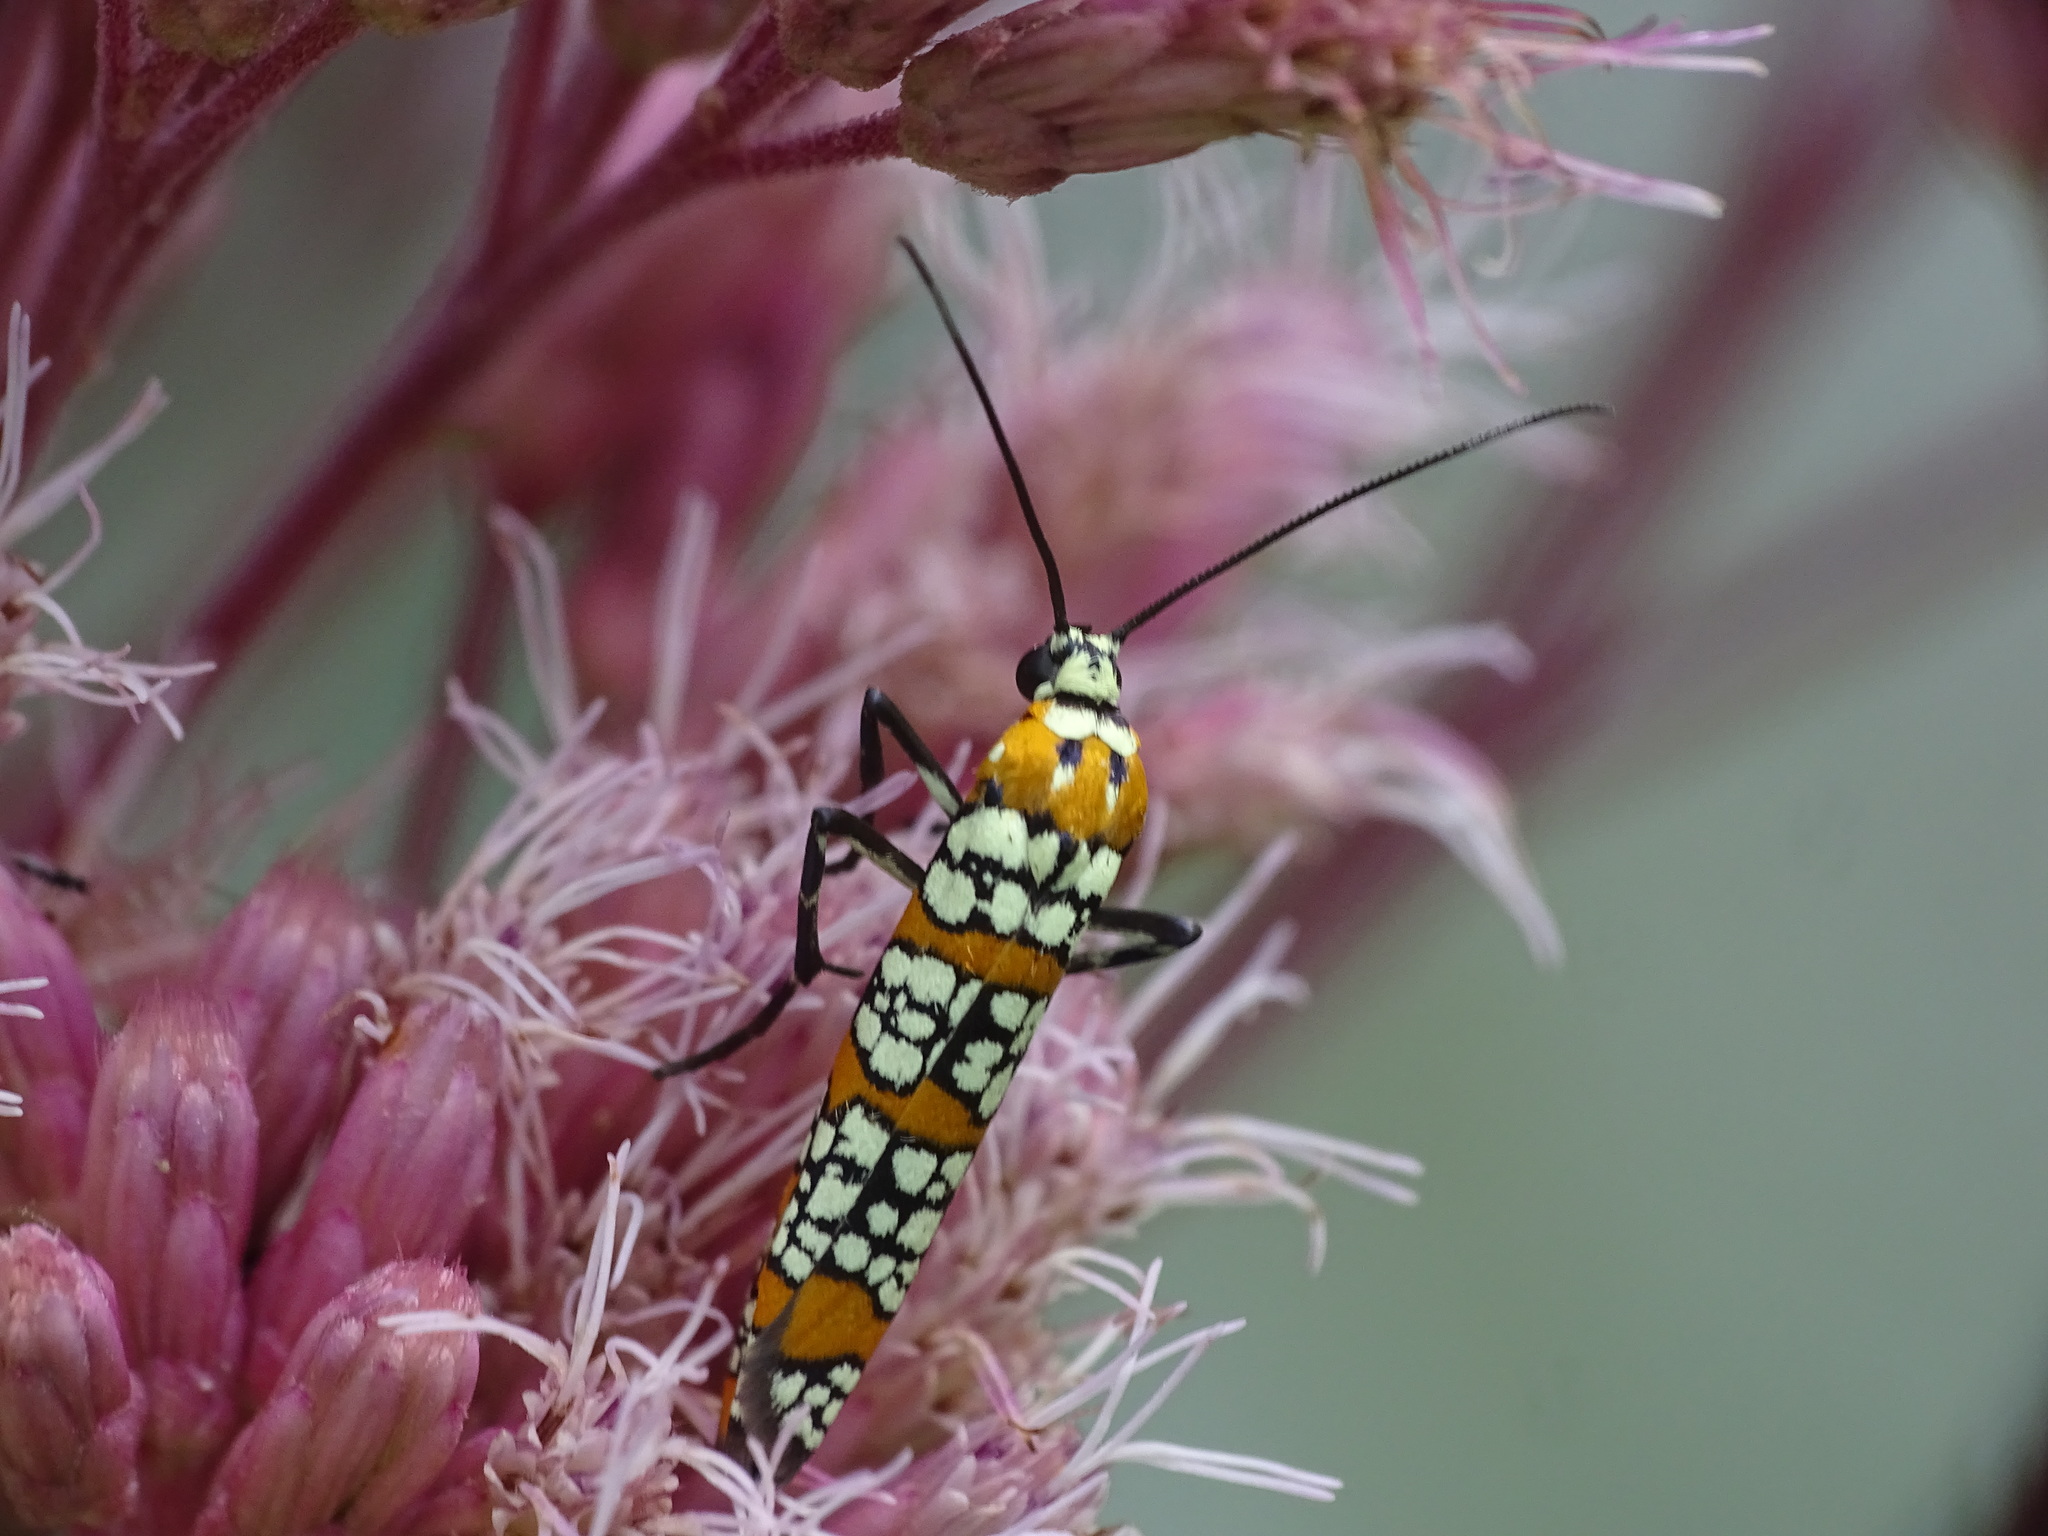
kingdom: Animalia
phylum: Arthropoda
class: Insecta
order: Lepidoptera
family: Attevidae
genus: Atteva
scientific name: Atteva punctella
